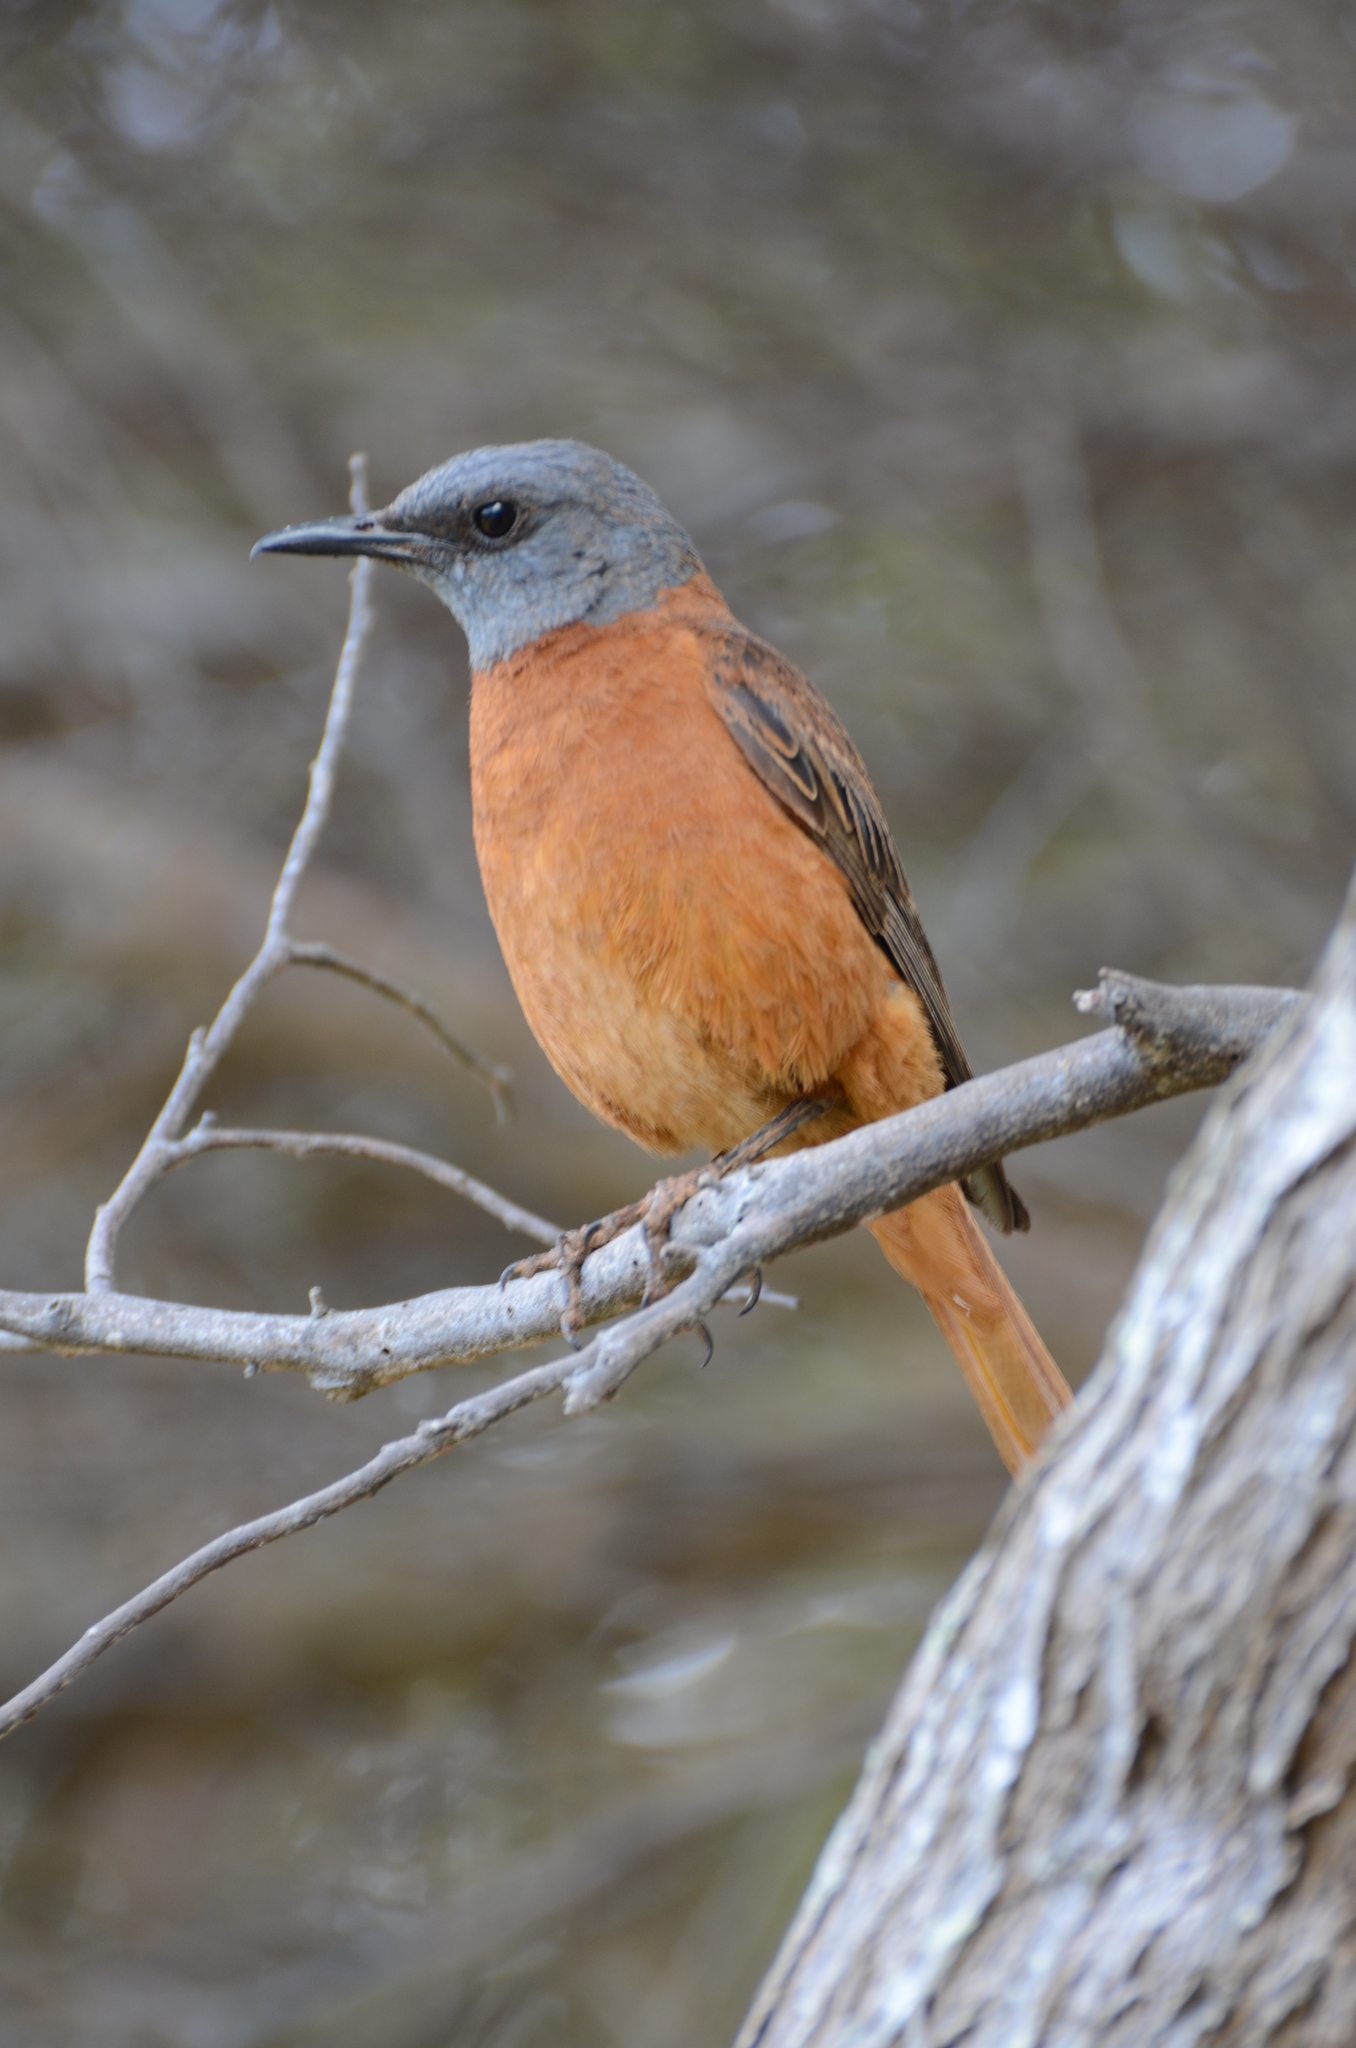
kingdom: Animalia
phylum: Chordata
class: Aves
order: Passeriformes
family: Muscicapidae
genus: Monticola
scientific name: Monticola rupestris
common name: Cape rock thrush
